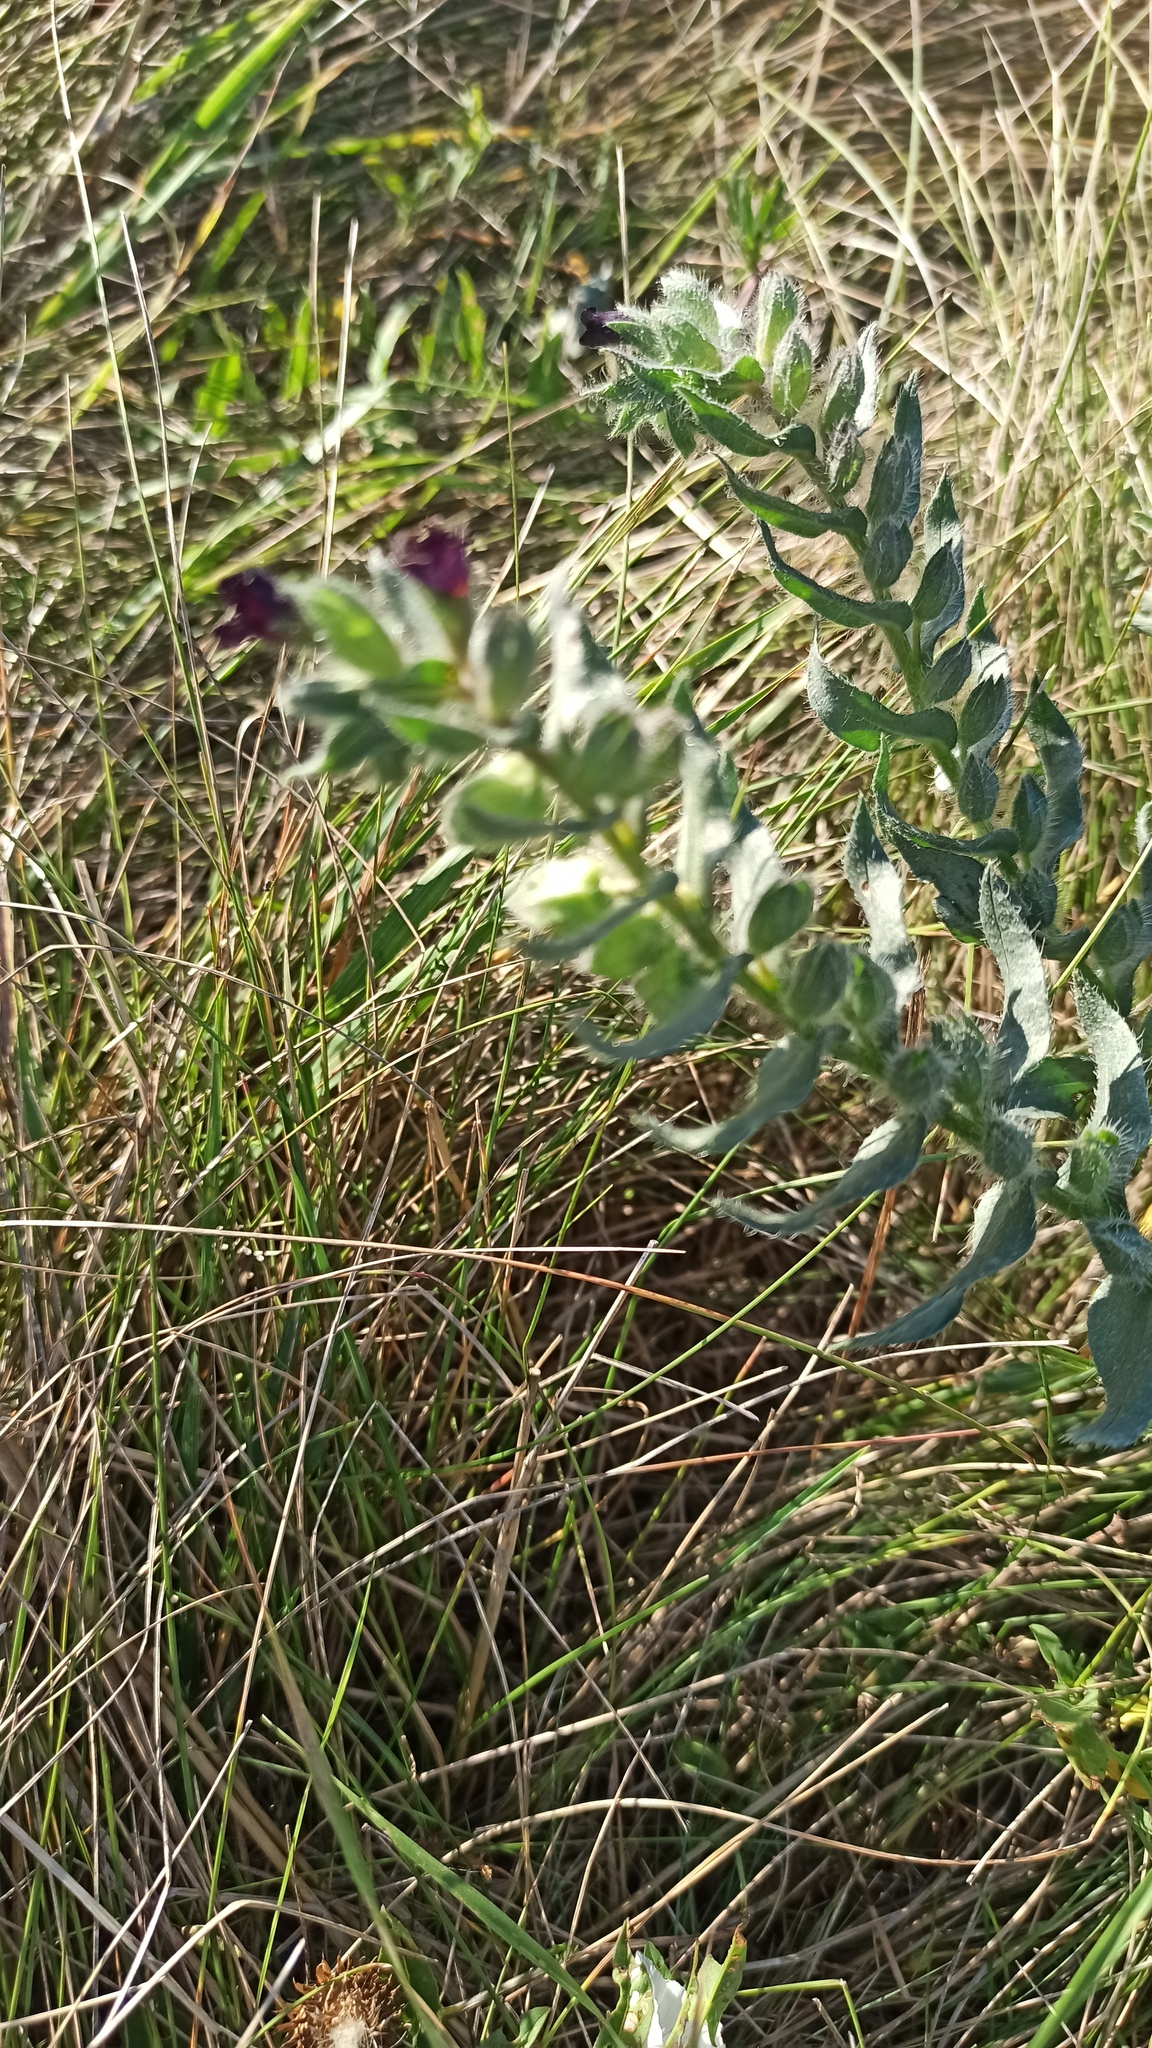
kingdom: Plantae
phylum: Tracheophyta
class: Magnoliopsida
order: Boraginales
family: Boraginaceae
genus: Nonea
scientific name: Nonea pulla
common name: Brown nonea
